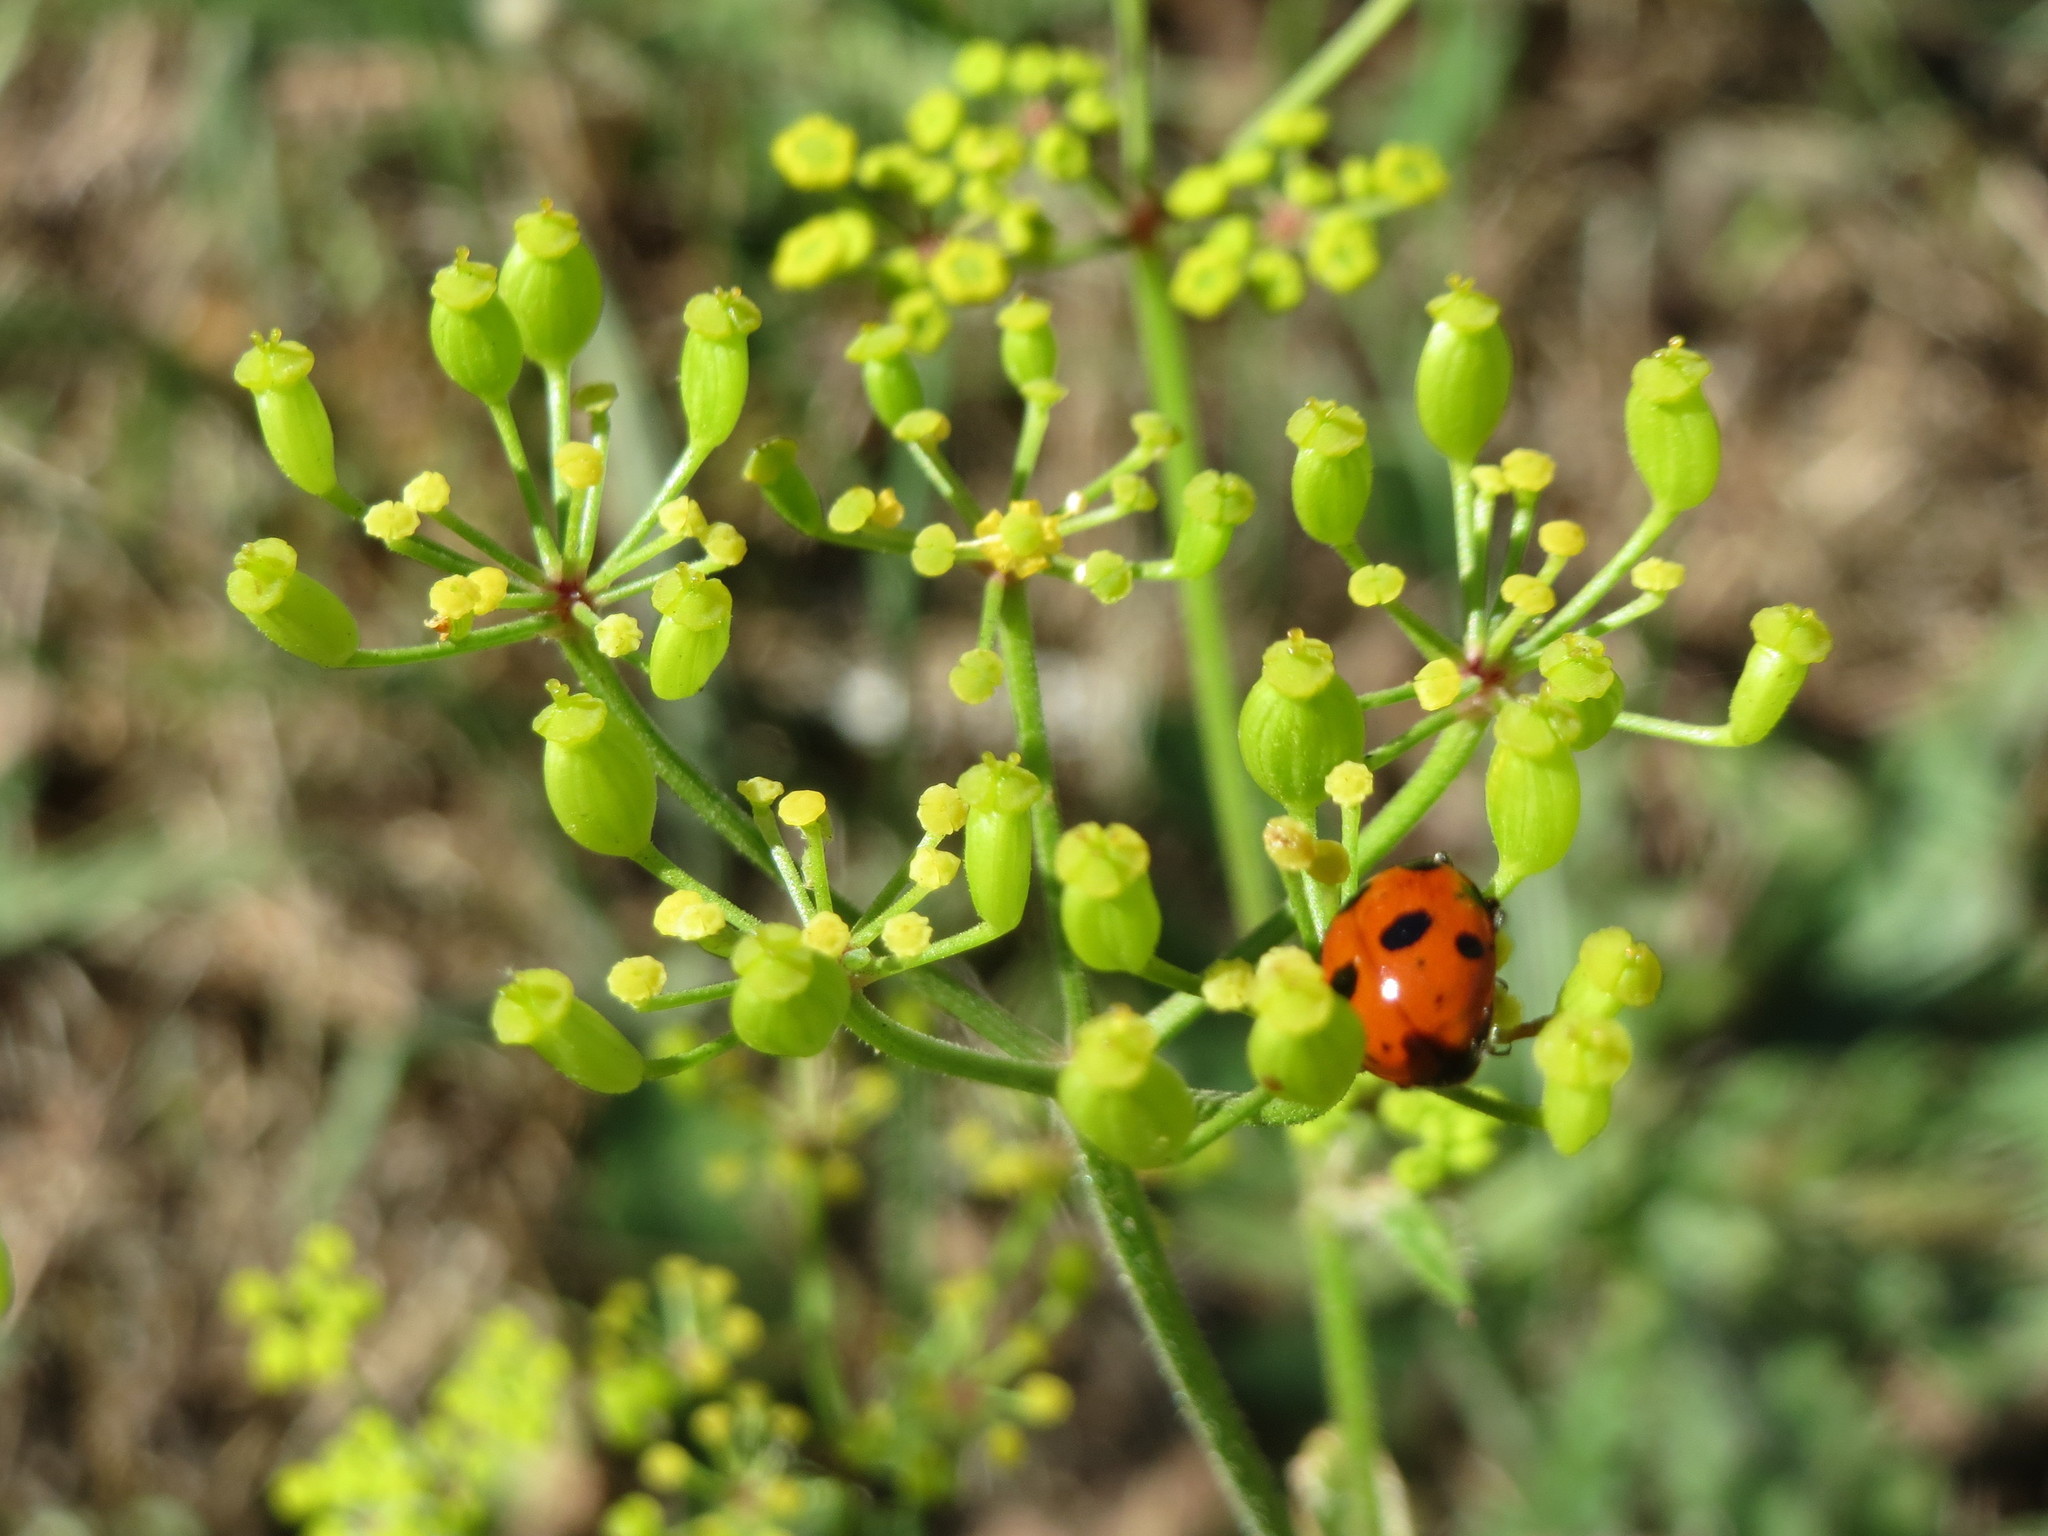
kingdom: Plantae
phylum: Tracheophyta
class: Magnoliopsida
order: Apiales
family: Apiaceae
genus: Pastinaca
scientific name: Pastinaca sativa
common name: Wild parsnip
